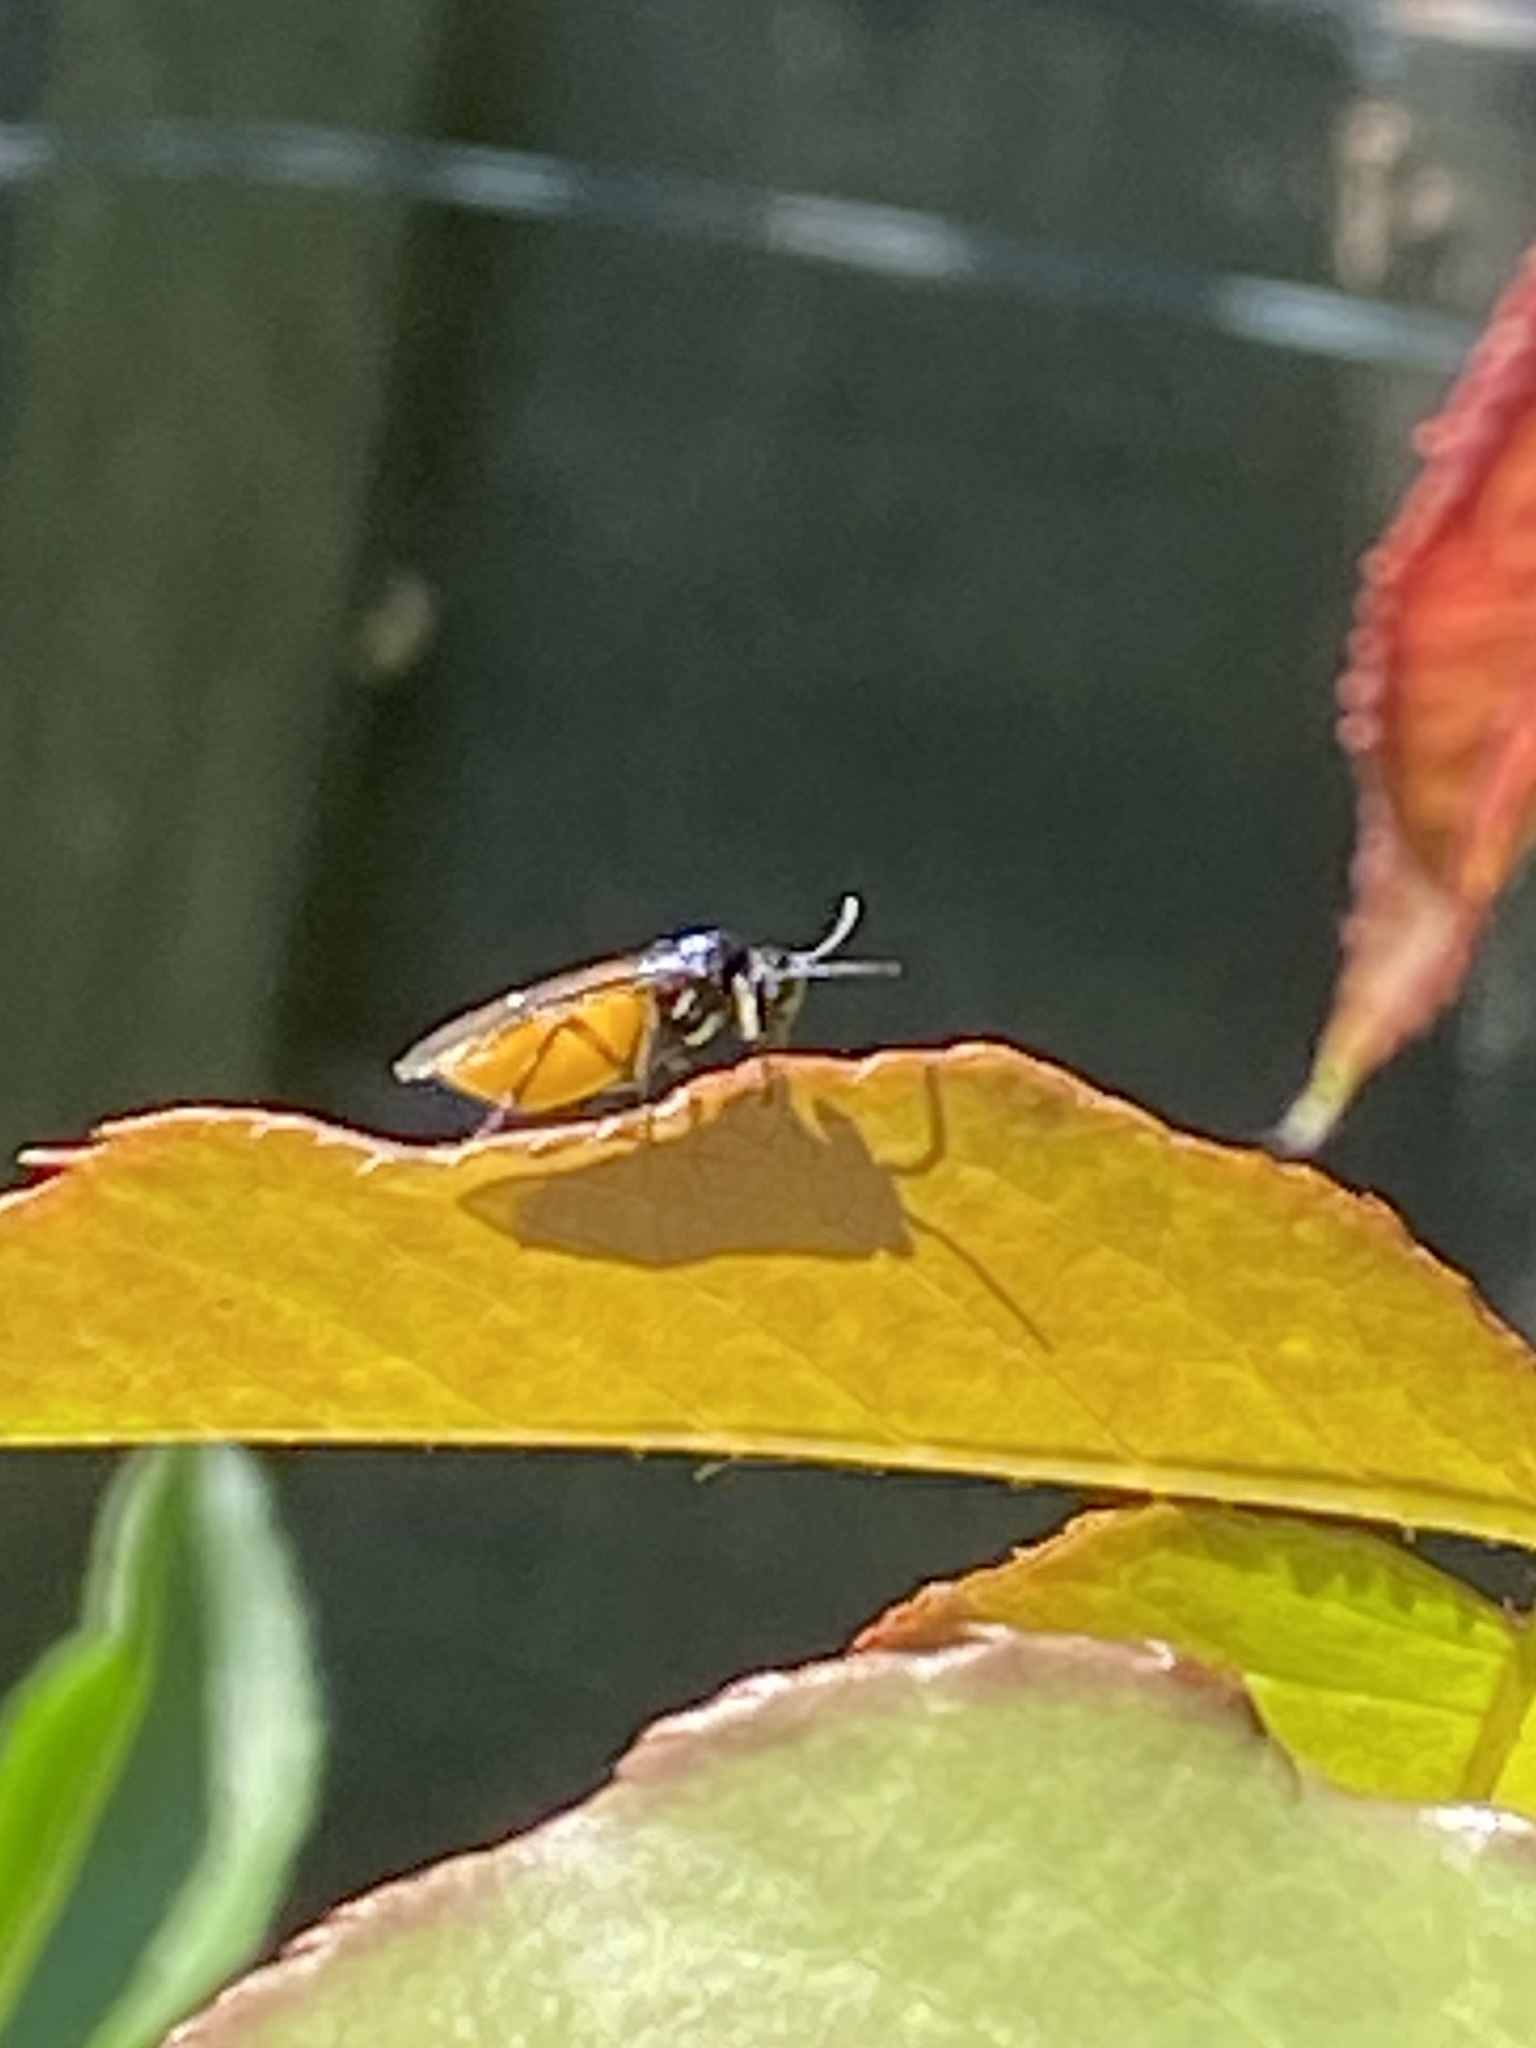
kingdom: Animalia
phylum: Arthropoda
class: Insecta
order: Hymenoptera
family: Argidae
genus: Arge
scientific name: Arge pagana
